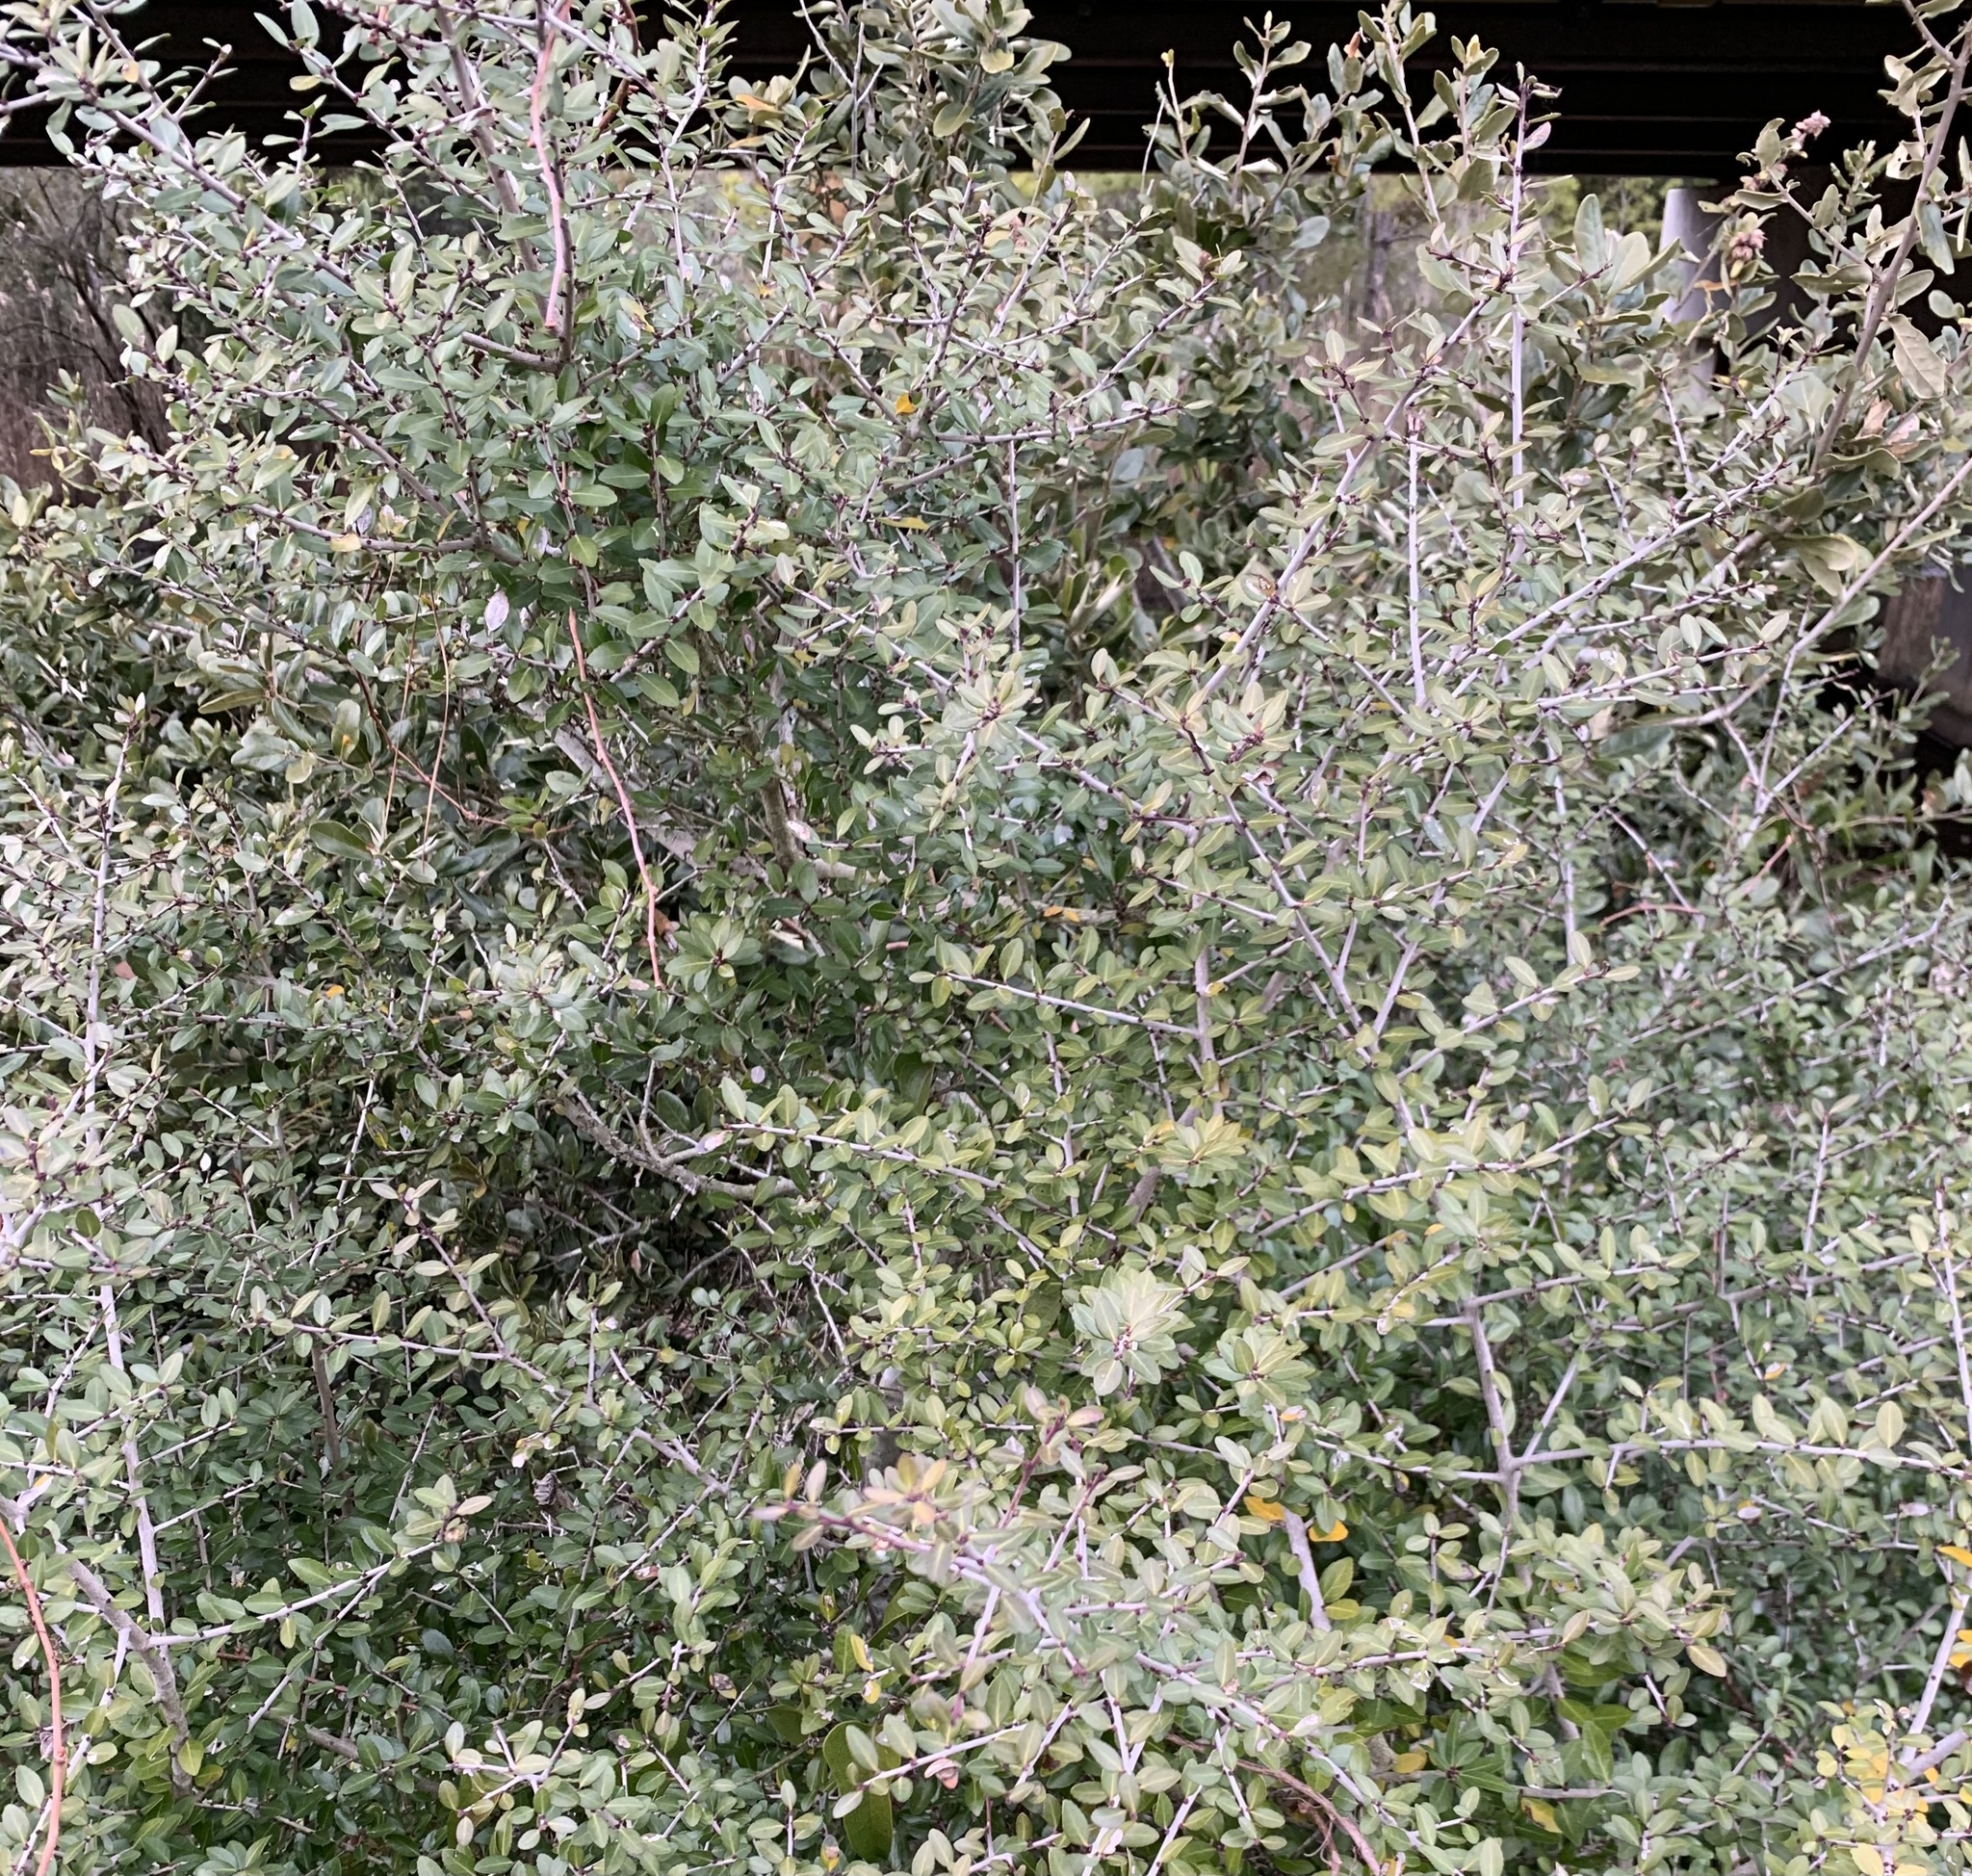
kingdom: Plantae
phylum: Tracheophyta
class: Magnoliopsida
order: Aquifoliales
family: Aquifoliaceae
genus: Ilex
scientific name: Ilex vomitoria
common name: Yaupon holly
